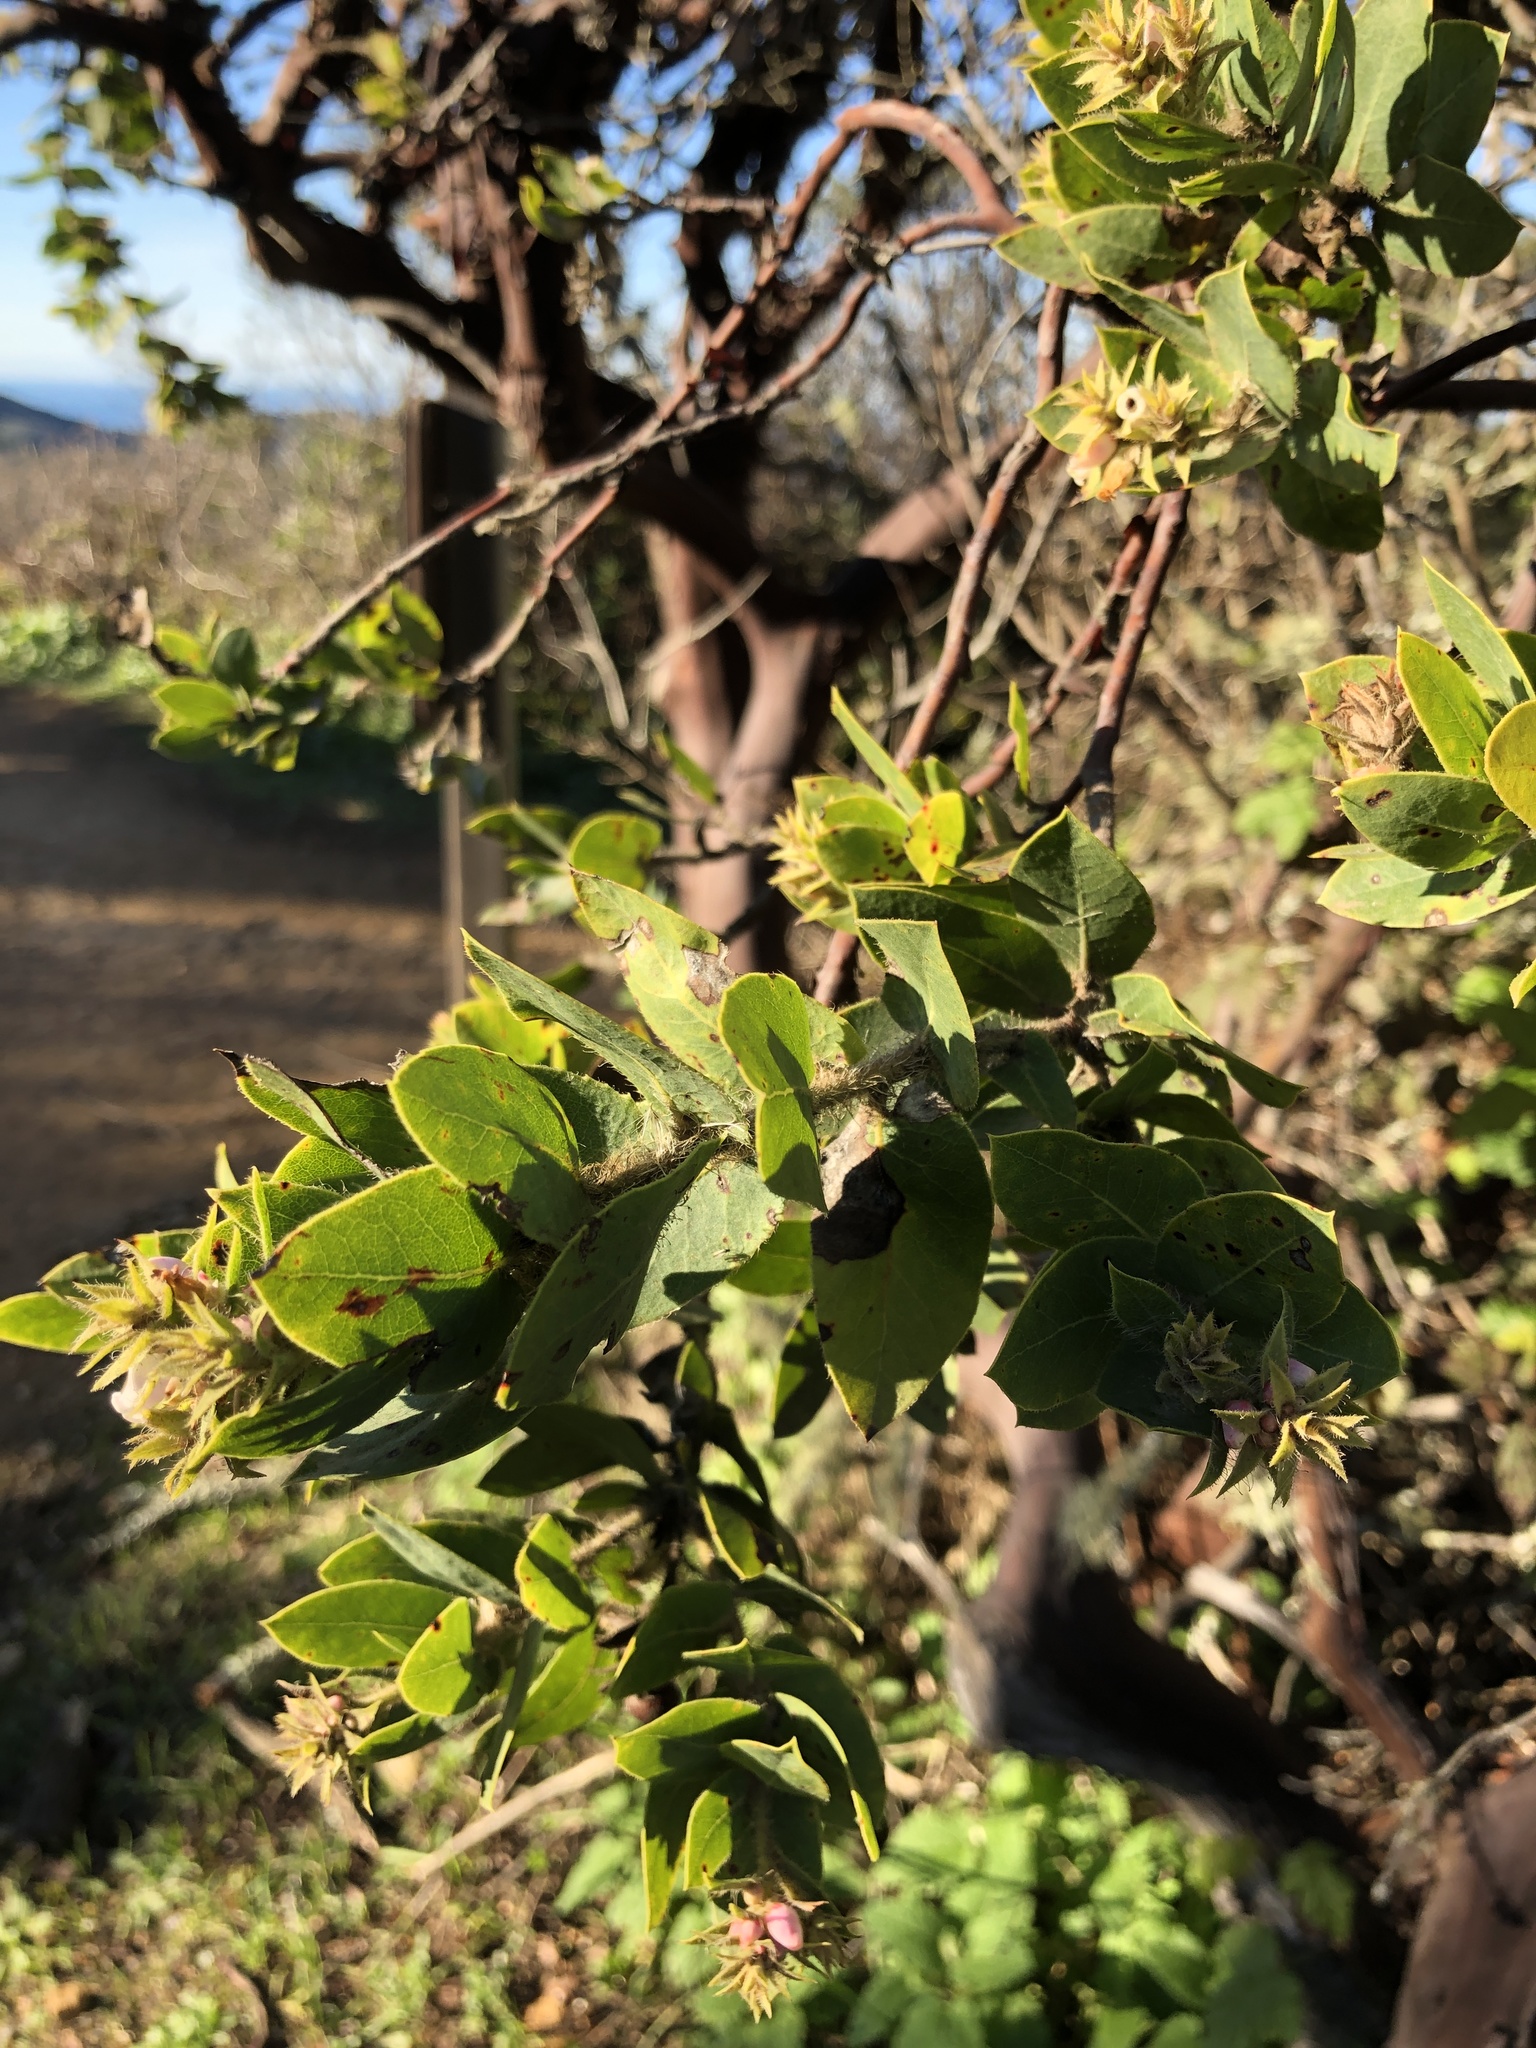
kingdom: Plantae
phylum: Tracheophyta
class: Magnoliopsida
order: Ericales
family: Ericaceae
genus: Arctostaphylos
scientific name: Arctostaphylos montaraensis
